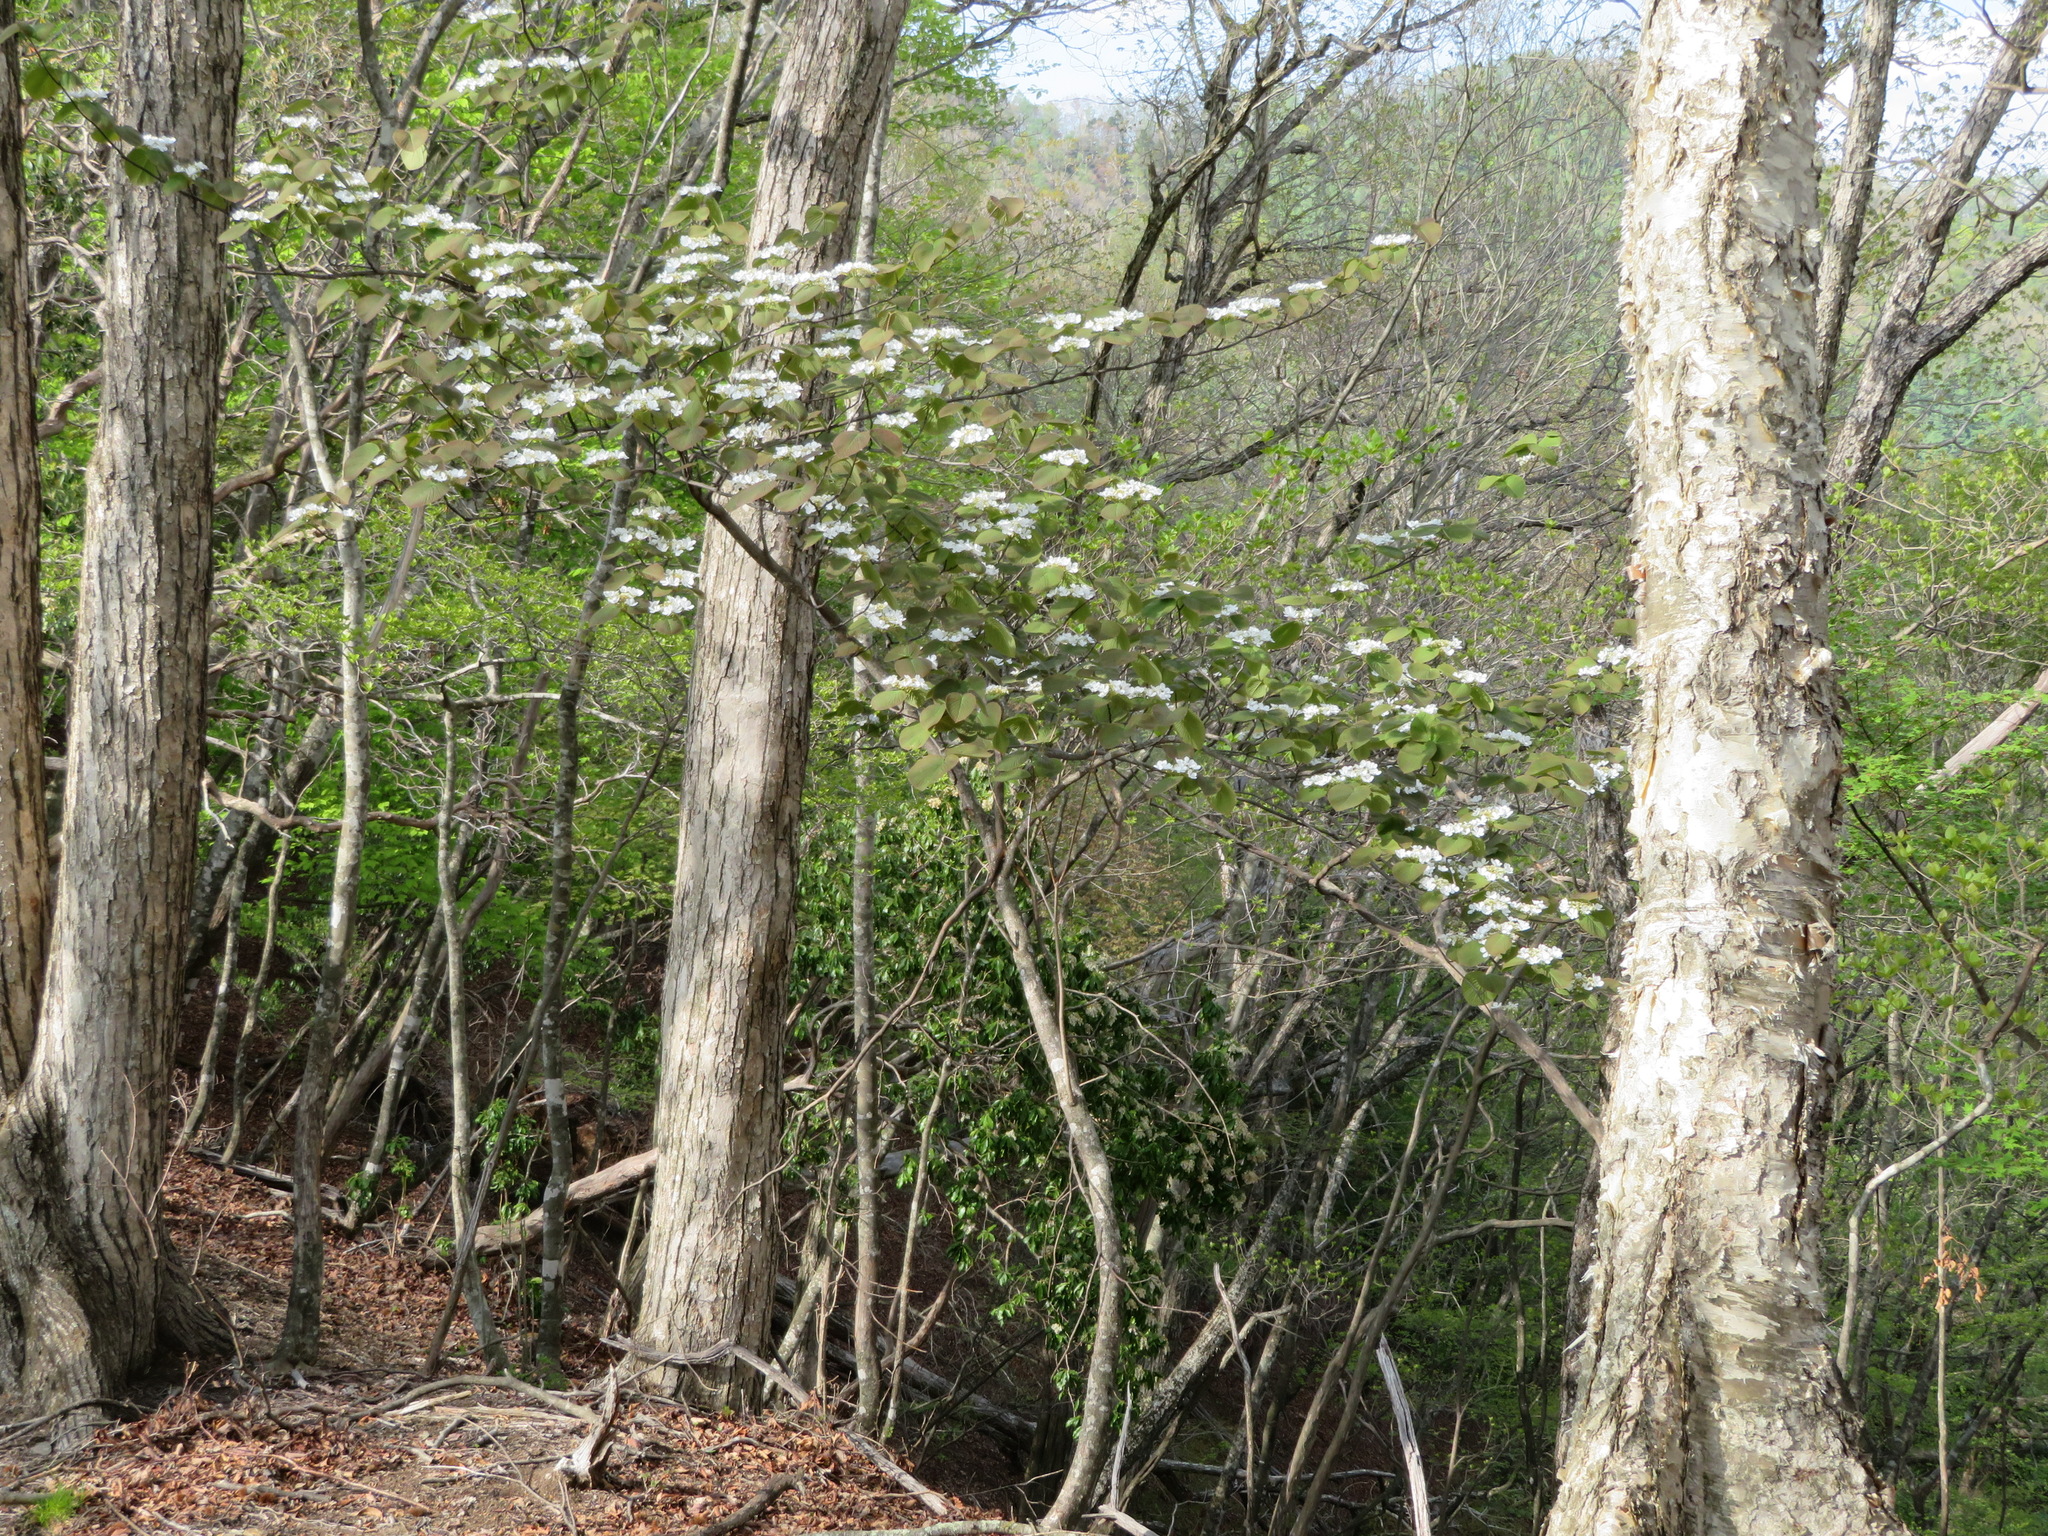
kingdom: Plantae
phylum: Tracheophyta
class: Magnoliopsida
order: Dipsacales
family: Viburnaceae
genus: Viburnum
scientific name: Viburnum furcatum
